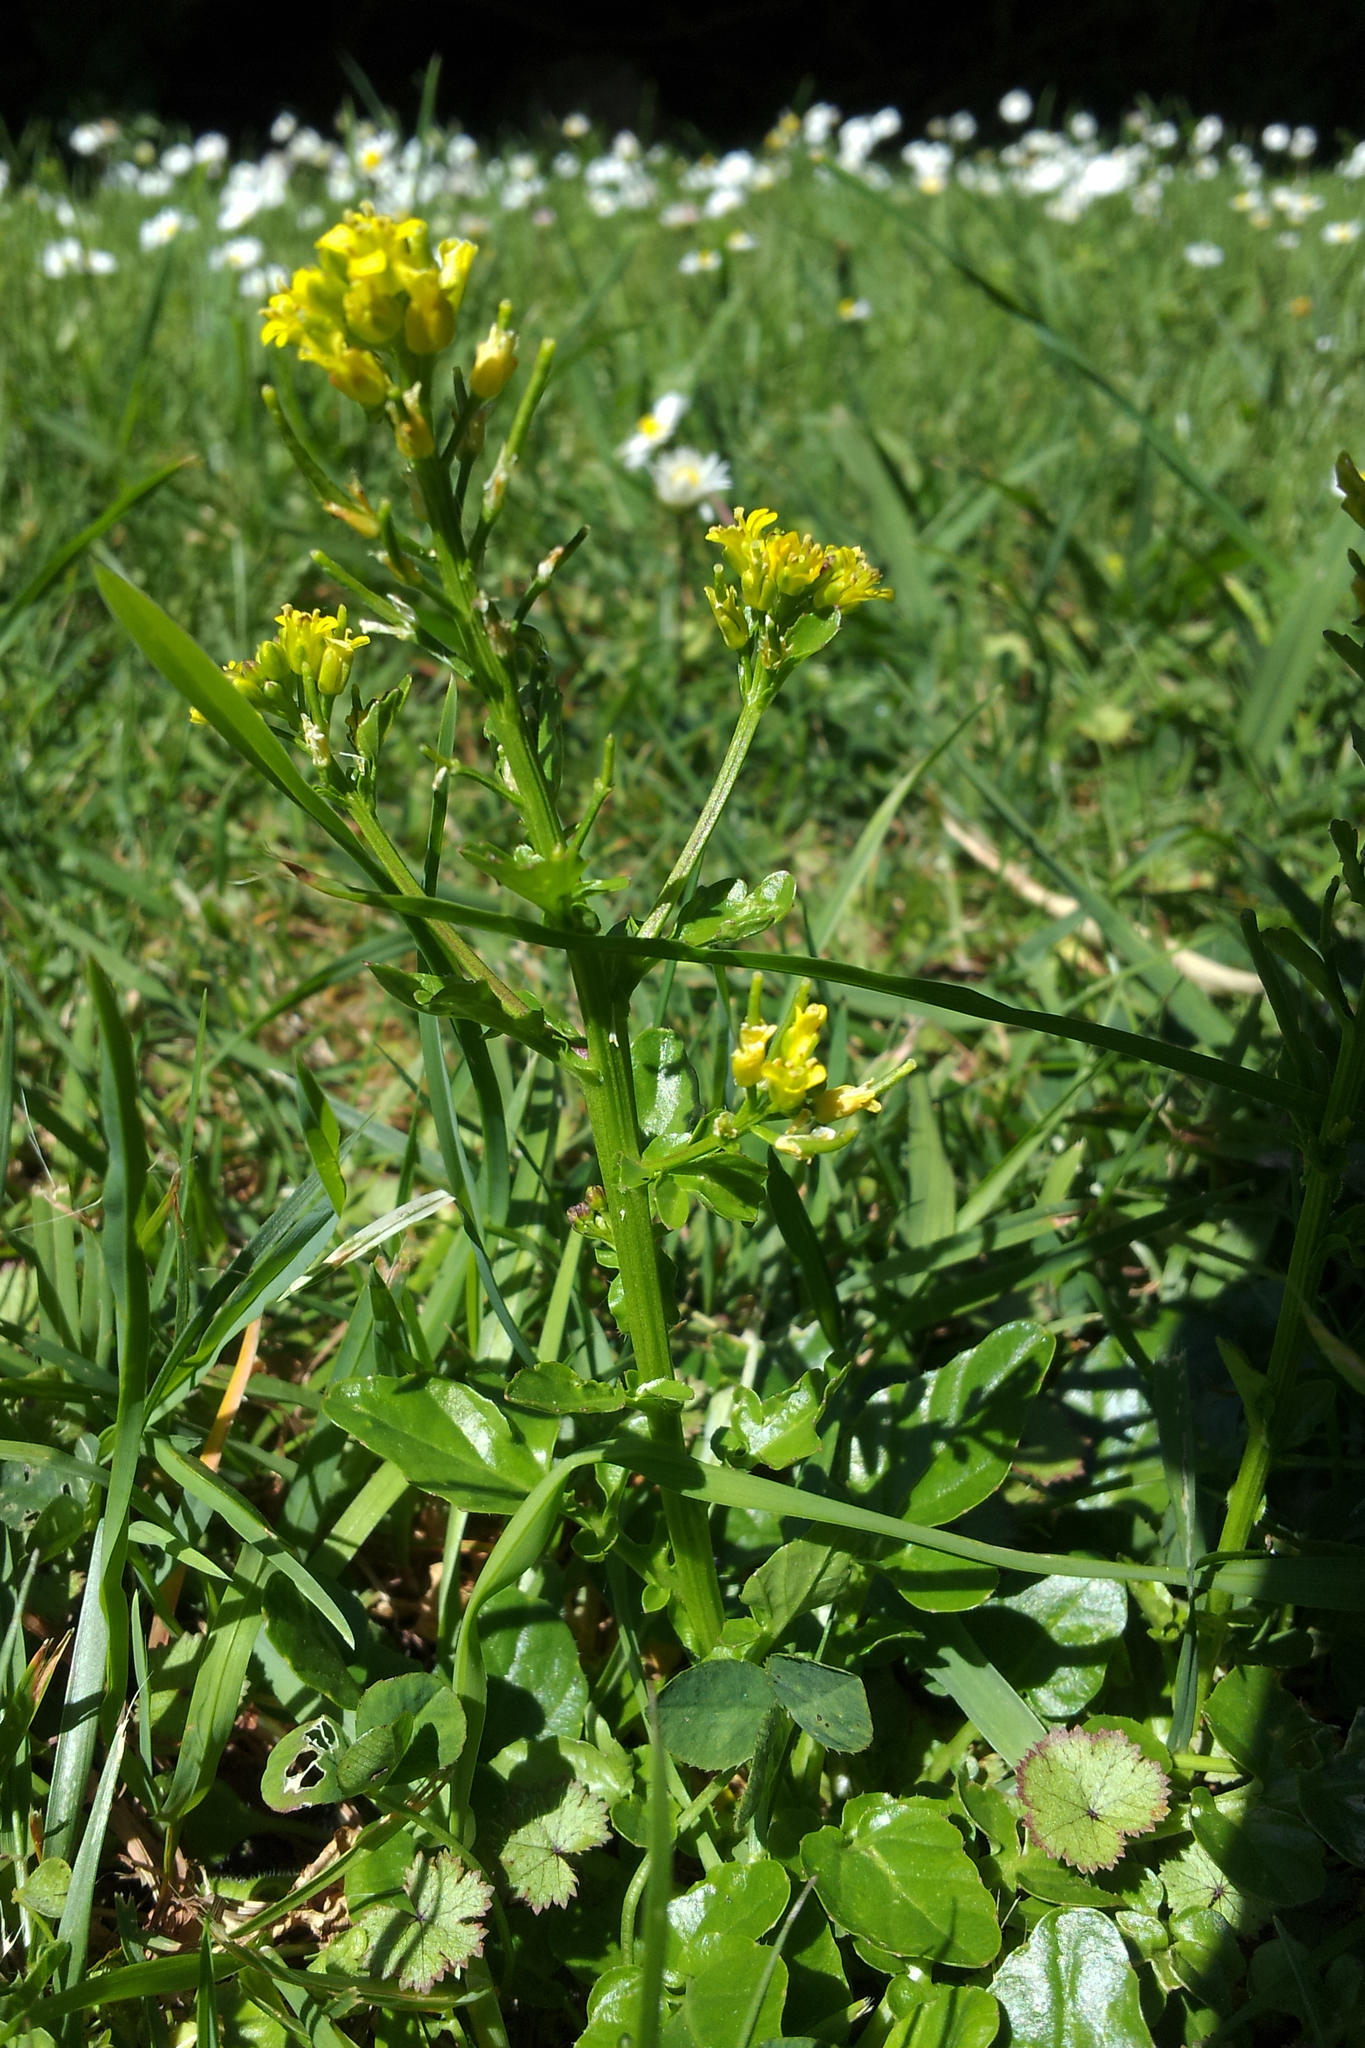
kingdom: Plantae
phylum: Tracheophyta
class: Magnoliopsida
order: Brassicales
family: Brassicaceae
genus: Barbarea
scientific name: Barbarea intermedia
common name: Medium-flowered winter-cress
